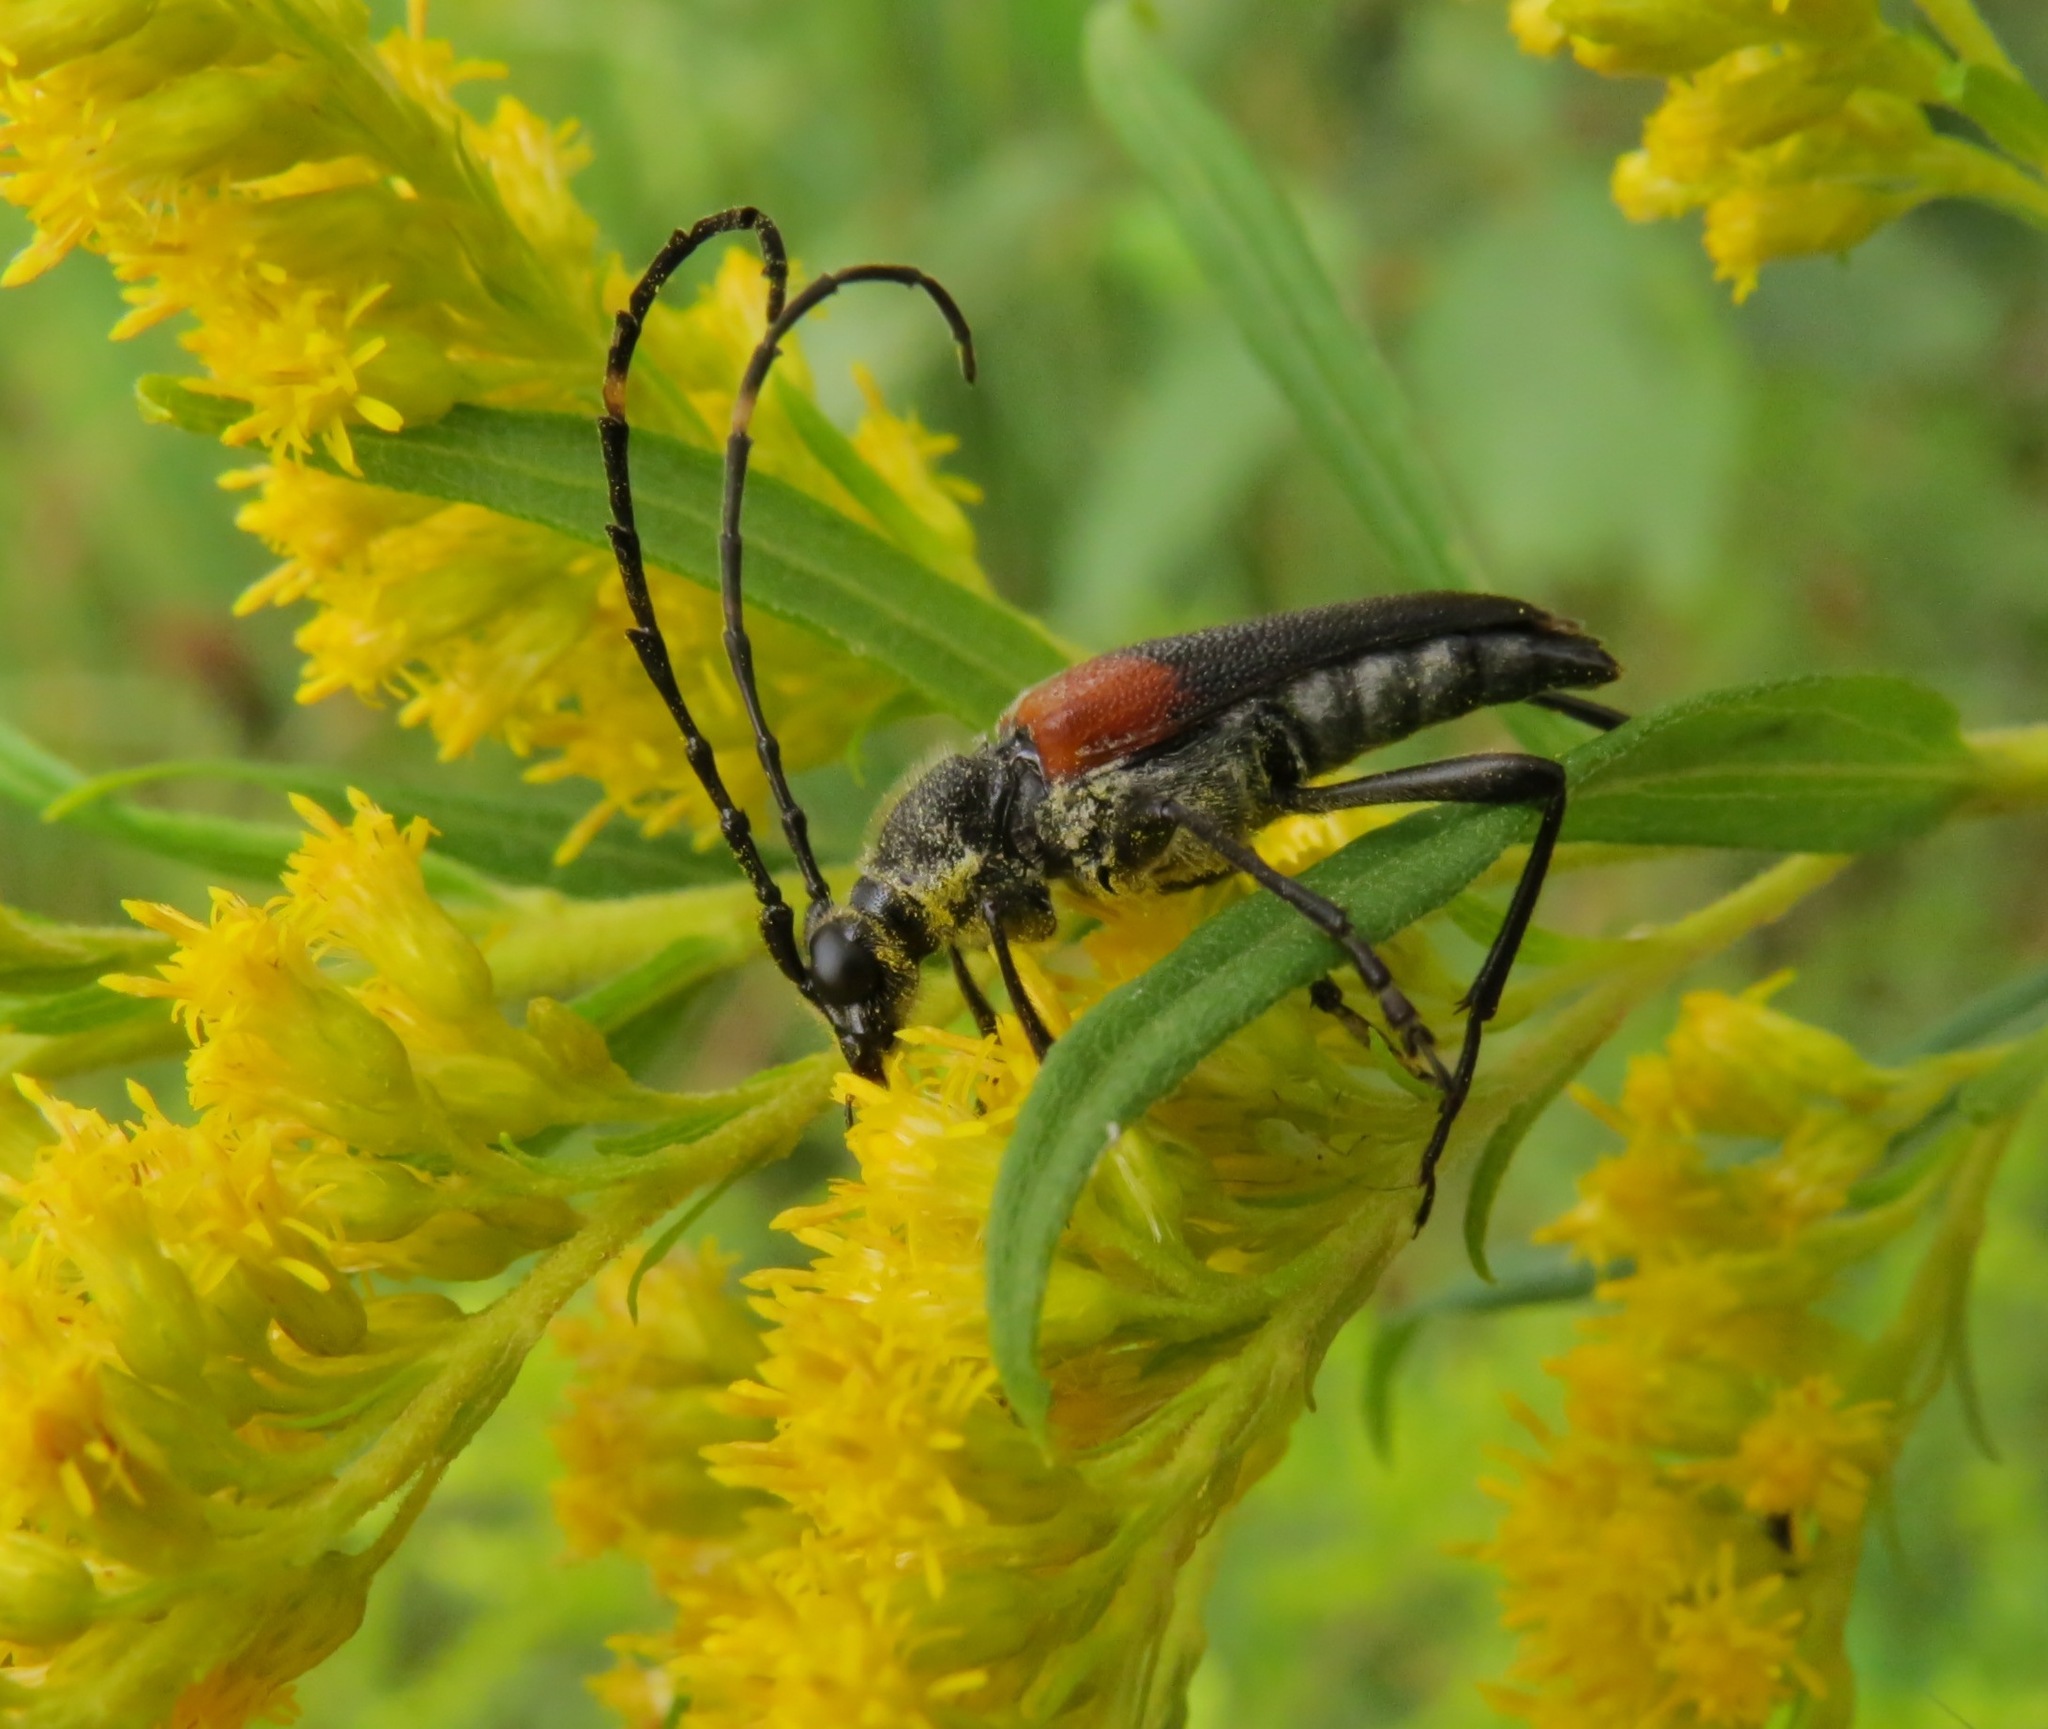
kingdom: Animalia
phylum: Arthropoda
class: Insecta
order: Coleoptera
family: Cerambycidae
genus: Stictoleptura
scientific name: Stictoleptura canadensis
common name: Red-shouldered pine borer
